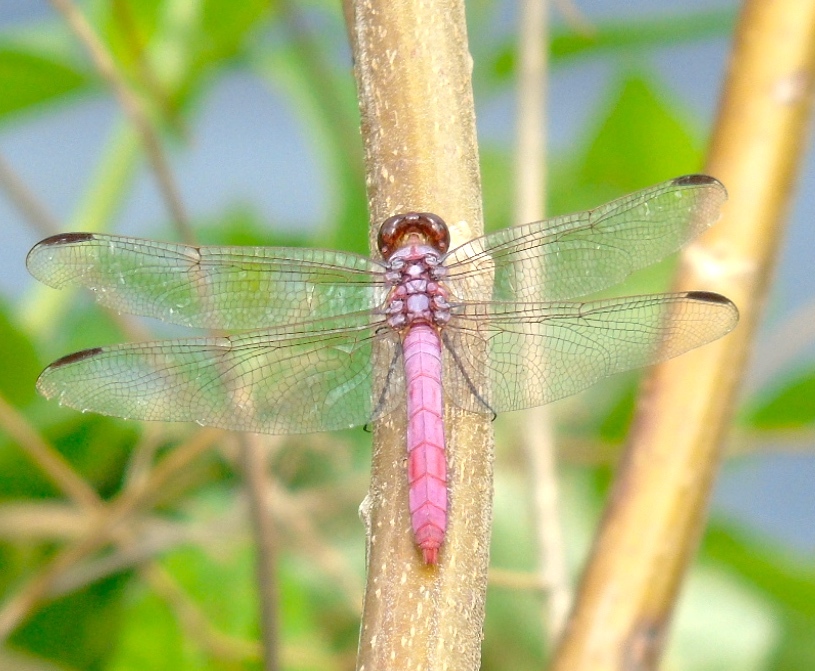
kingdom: Animalia
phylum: Arthropoda
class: Insecta
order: Odonata
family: Libellulidae
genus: Orthemis
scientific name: Orthemis ferruginea
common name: Roseate skimmer
